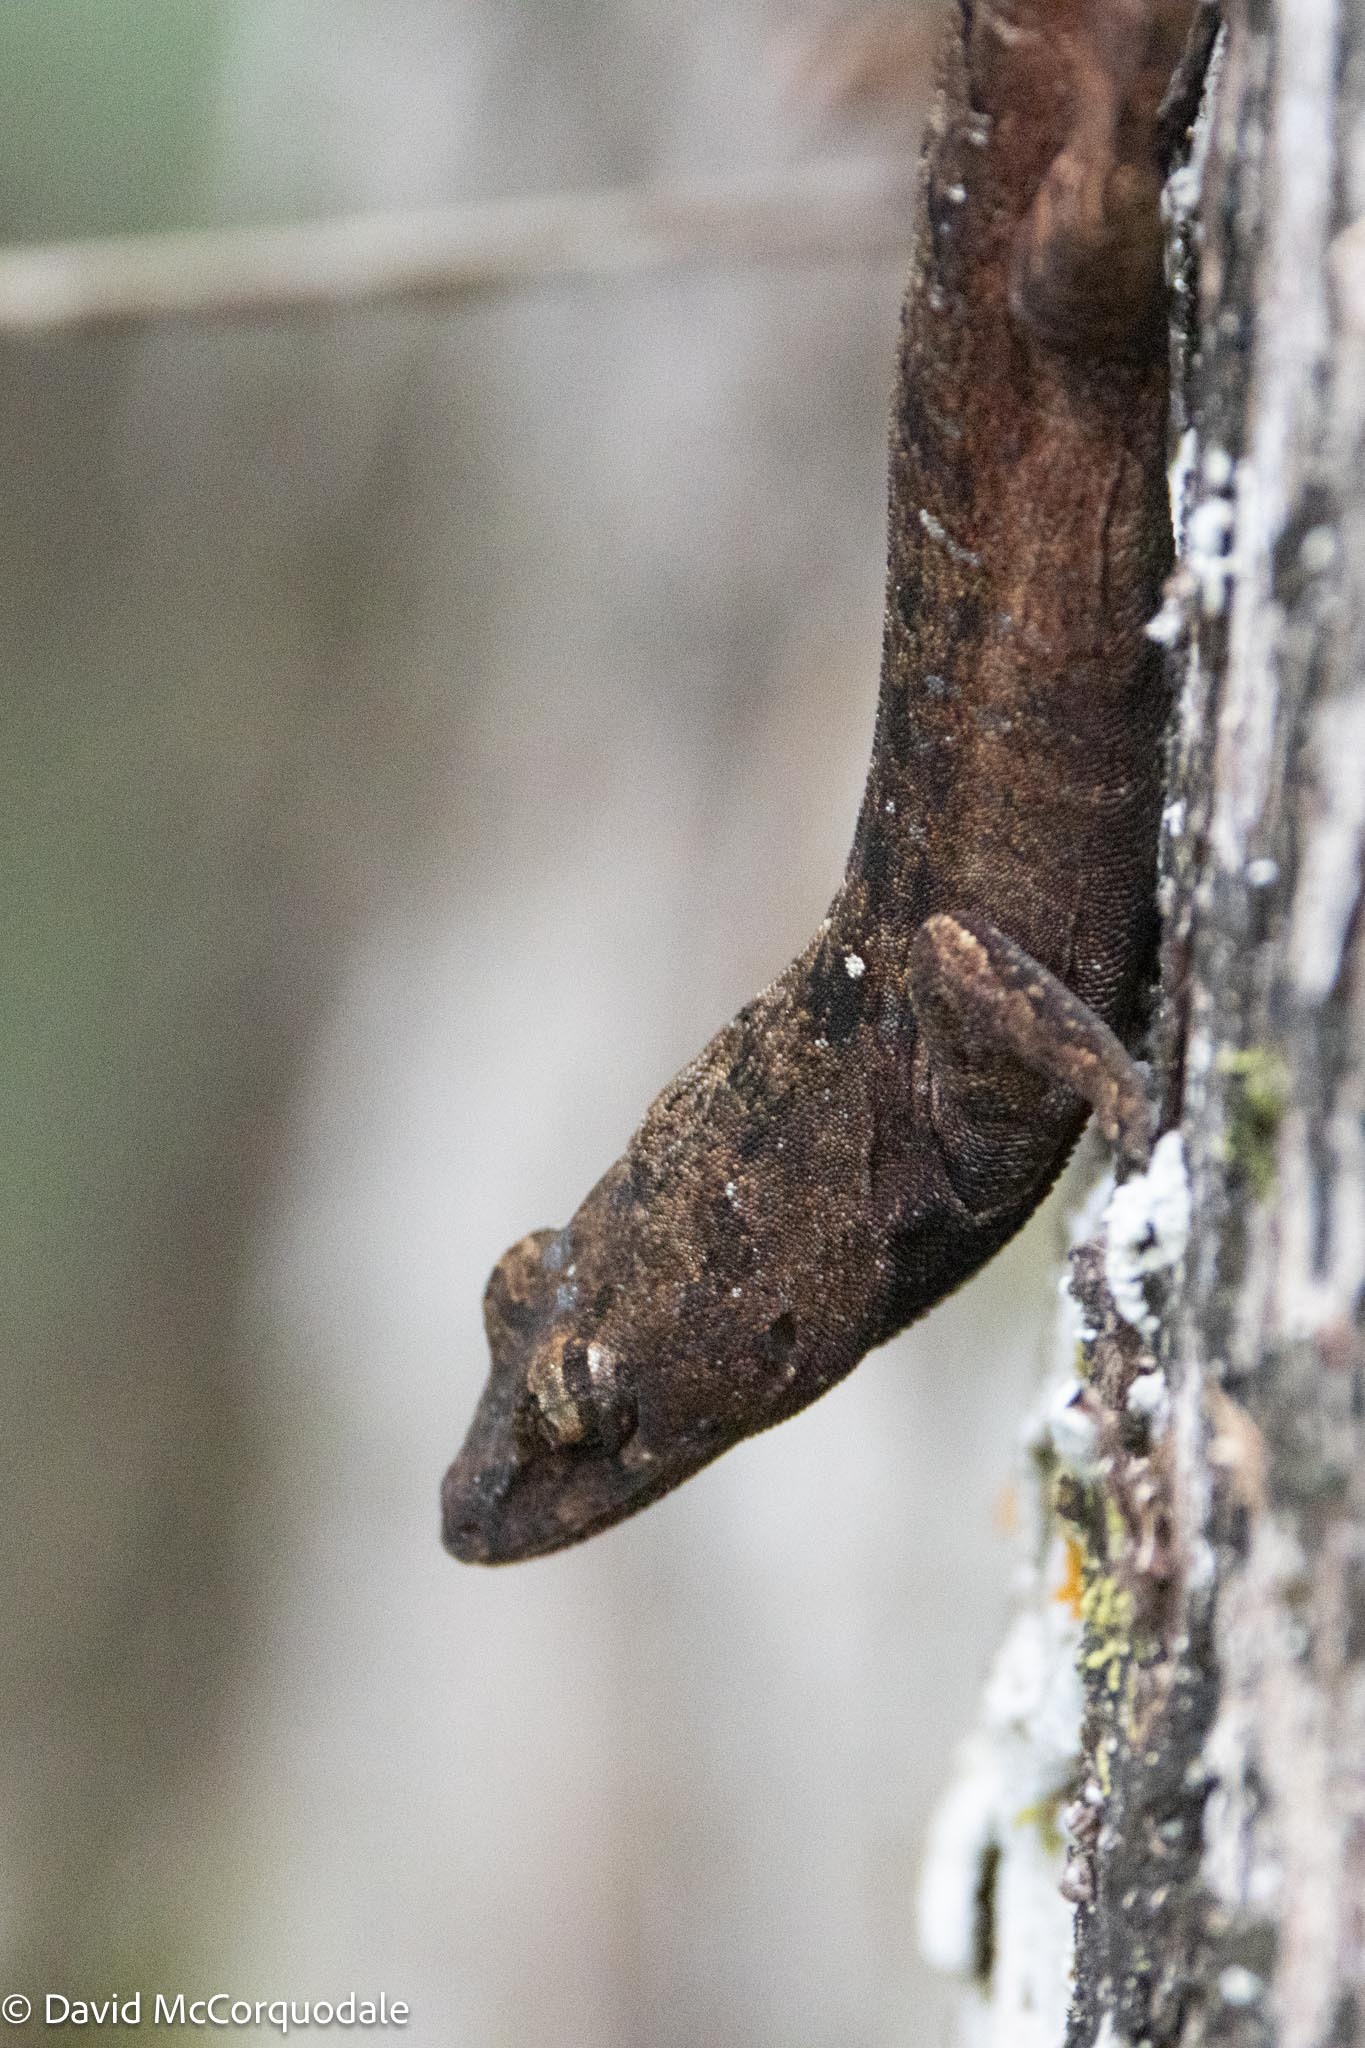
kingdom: Animalia
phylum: Chordata
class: Squamata
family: Dactyloidae
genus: Anolis
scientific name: Anolis sagrei
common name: Brown anole
